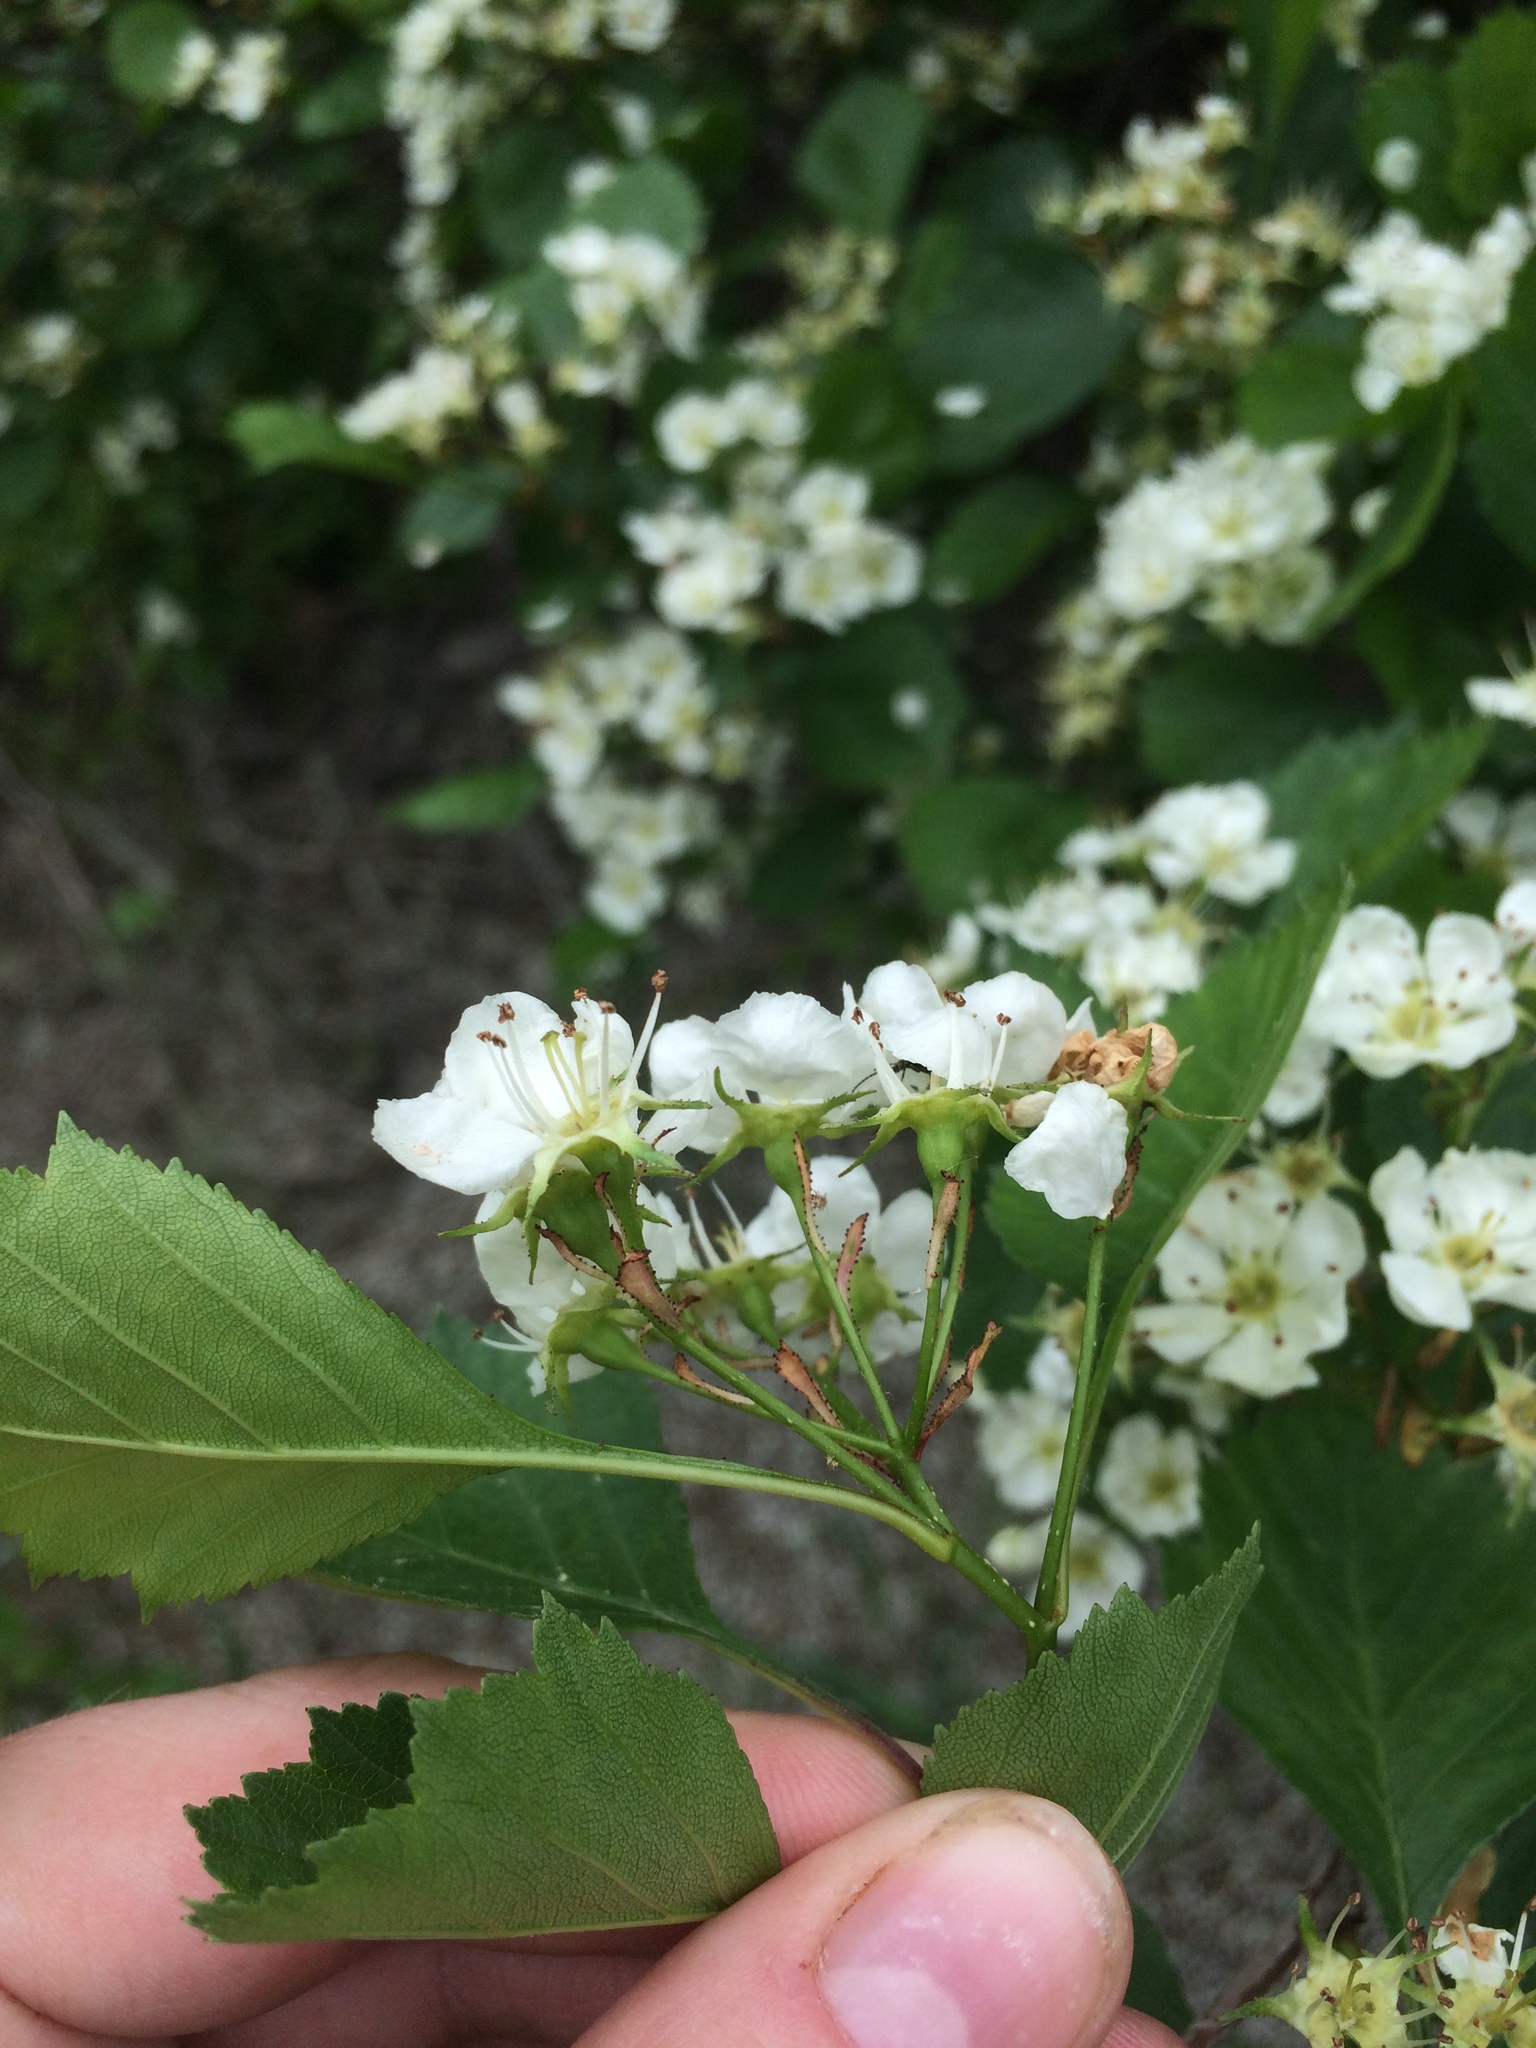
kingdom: Plantae
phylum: Tracheophyta
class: Magnoliopsida
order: Rosales
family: Rosaceae
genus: Crataegus
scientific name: Crataegus chrysocarpa
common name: Fire-berry hawthorn
